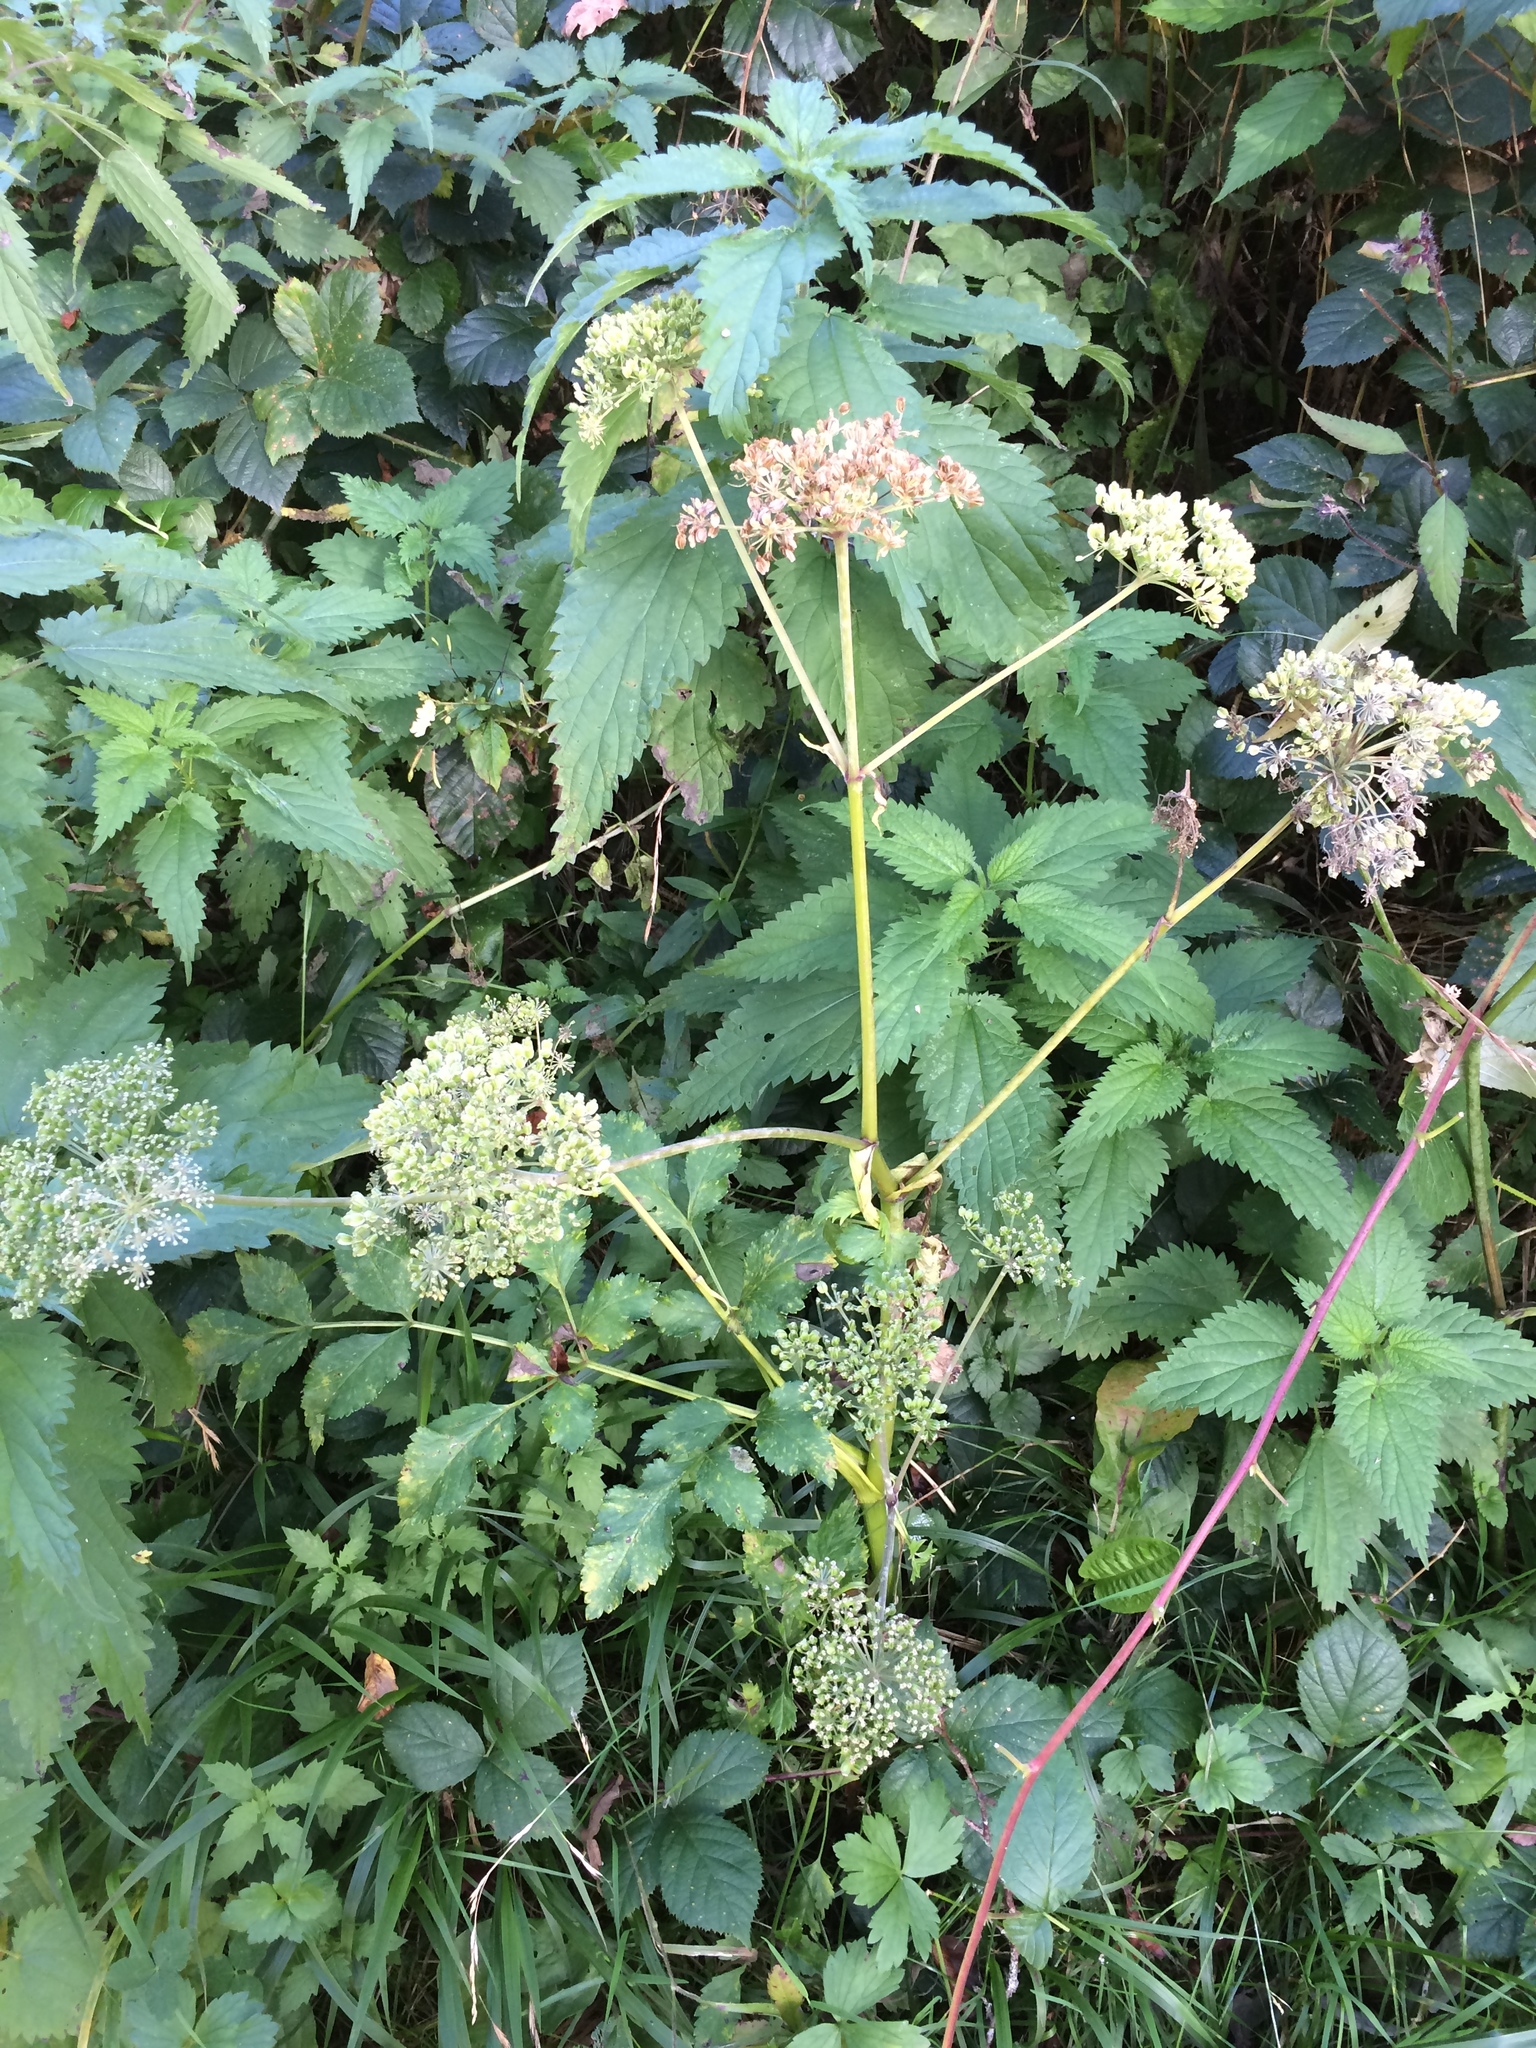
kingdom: Plantae
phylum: Tracheophyta
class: Magnoliopsida
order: Apiales
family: Apiaceae
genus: Angelica
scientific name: Angelica sylvestris
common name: Wild angelica
